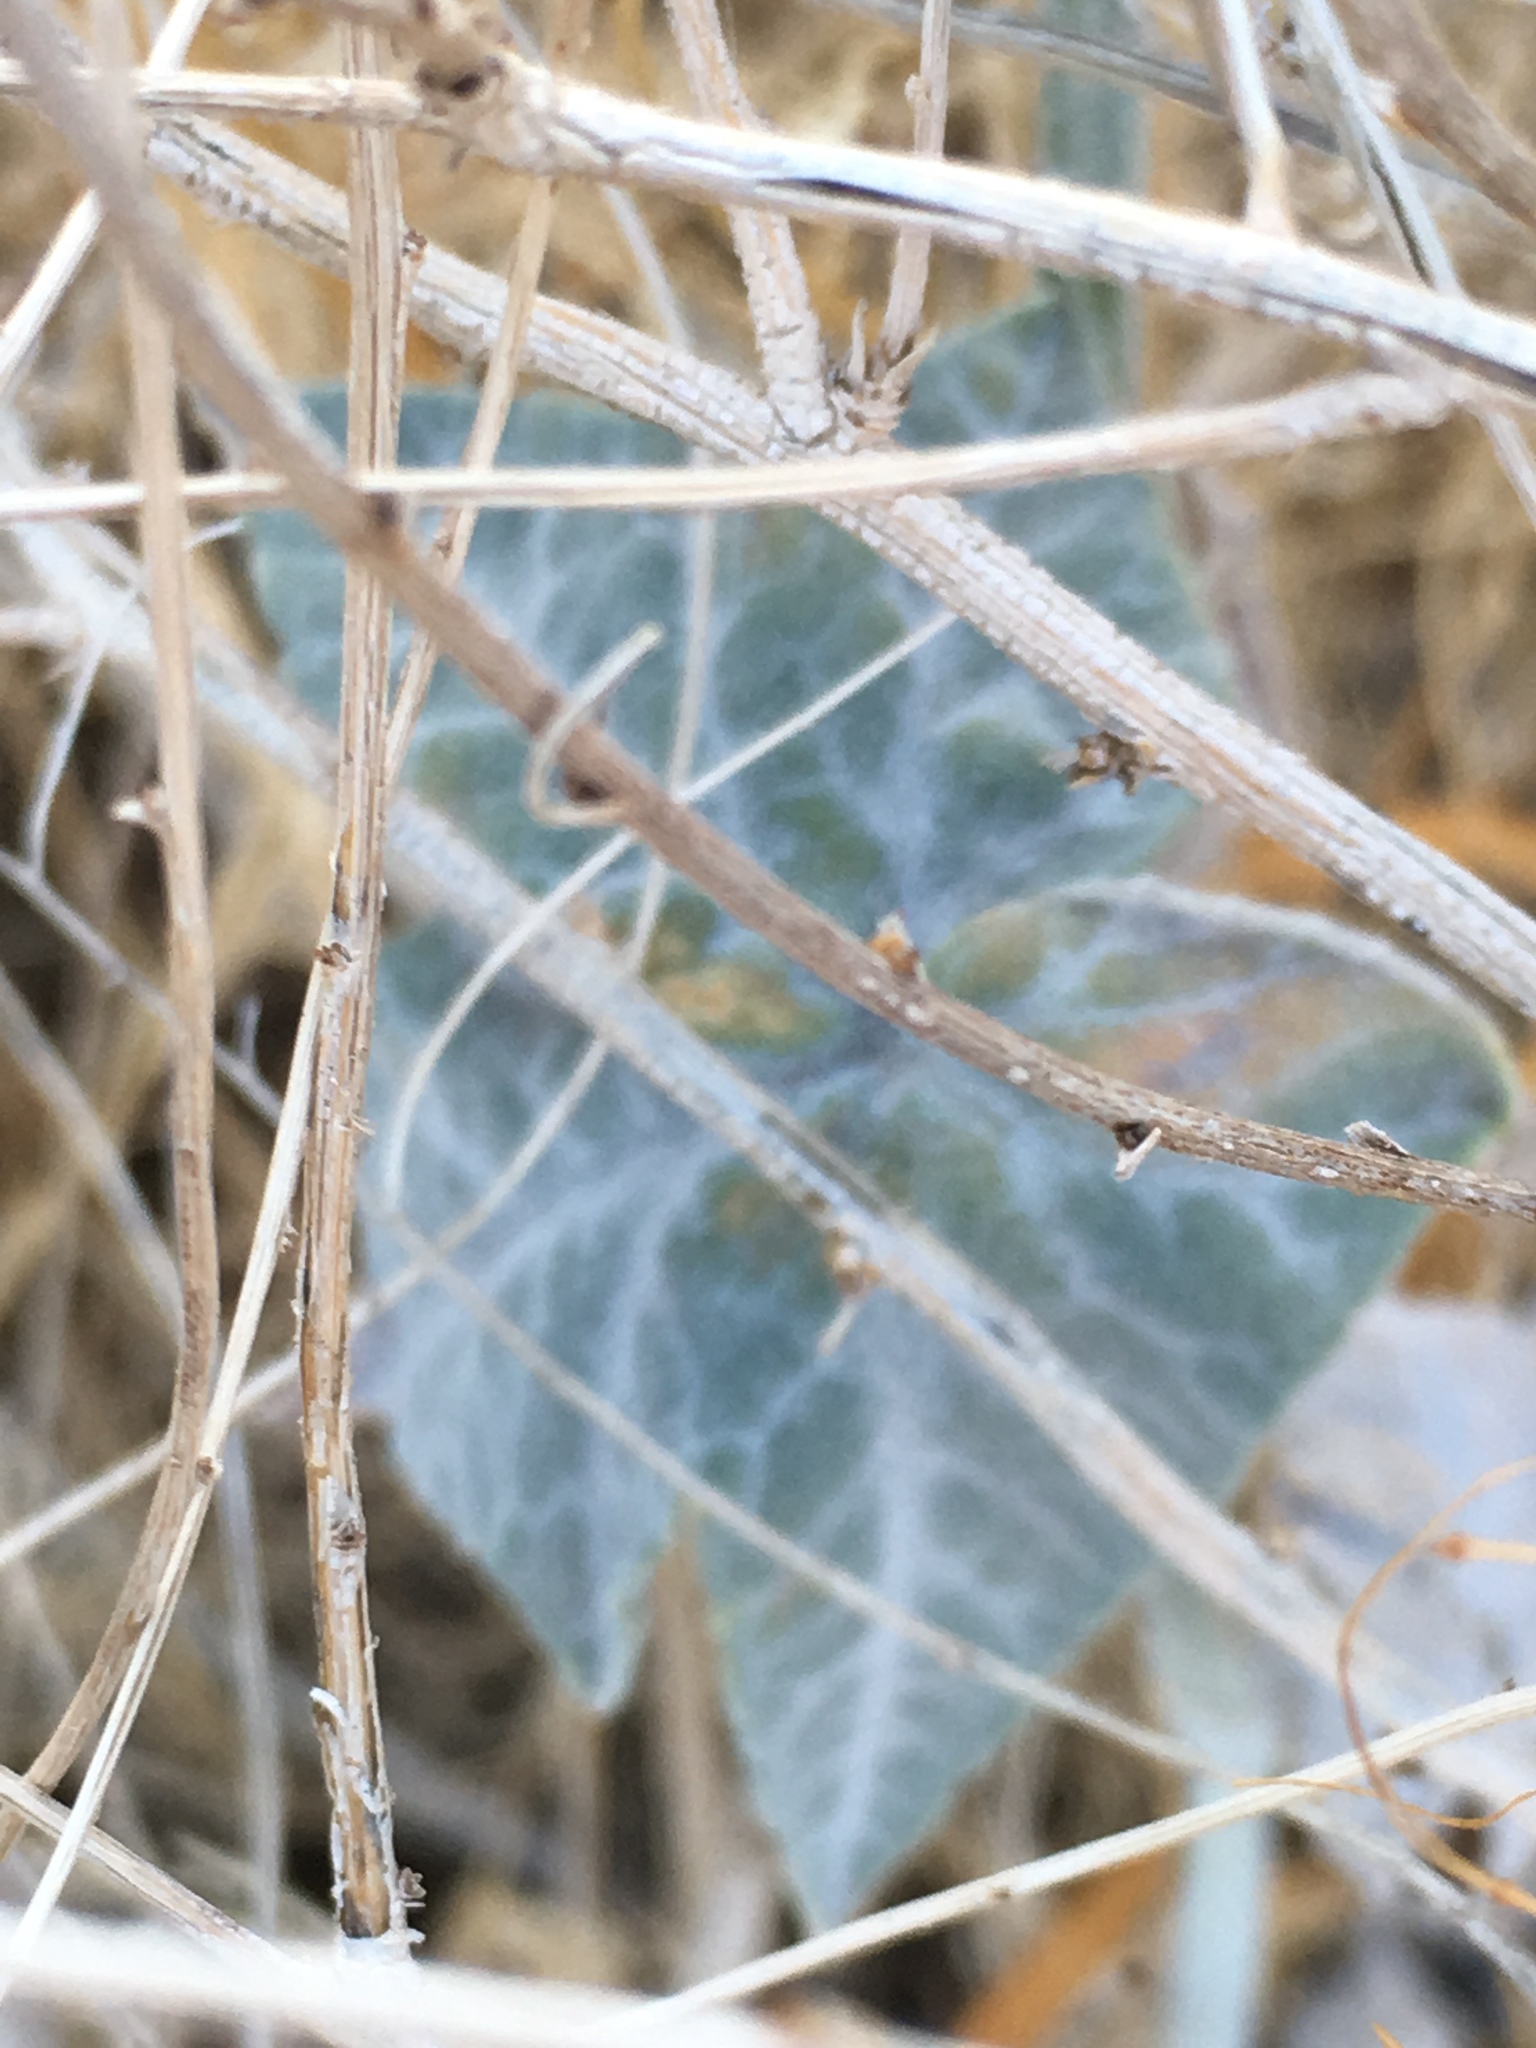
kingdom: Plantae
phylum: Tracheophyta
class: Magnoliopsida
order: Cucurbitales
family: Cucurbitaceae
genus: Cucurbita
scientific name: Cucurbita palmata
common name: Coyote-melon
